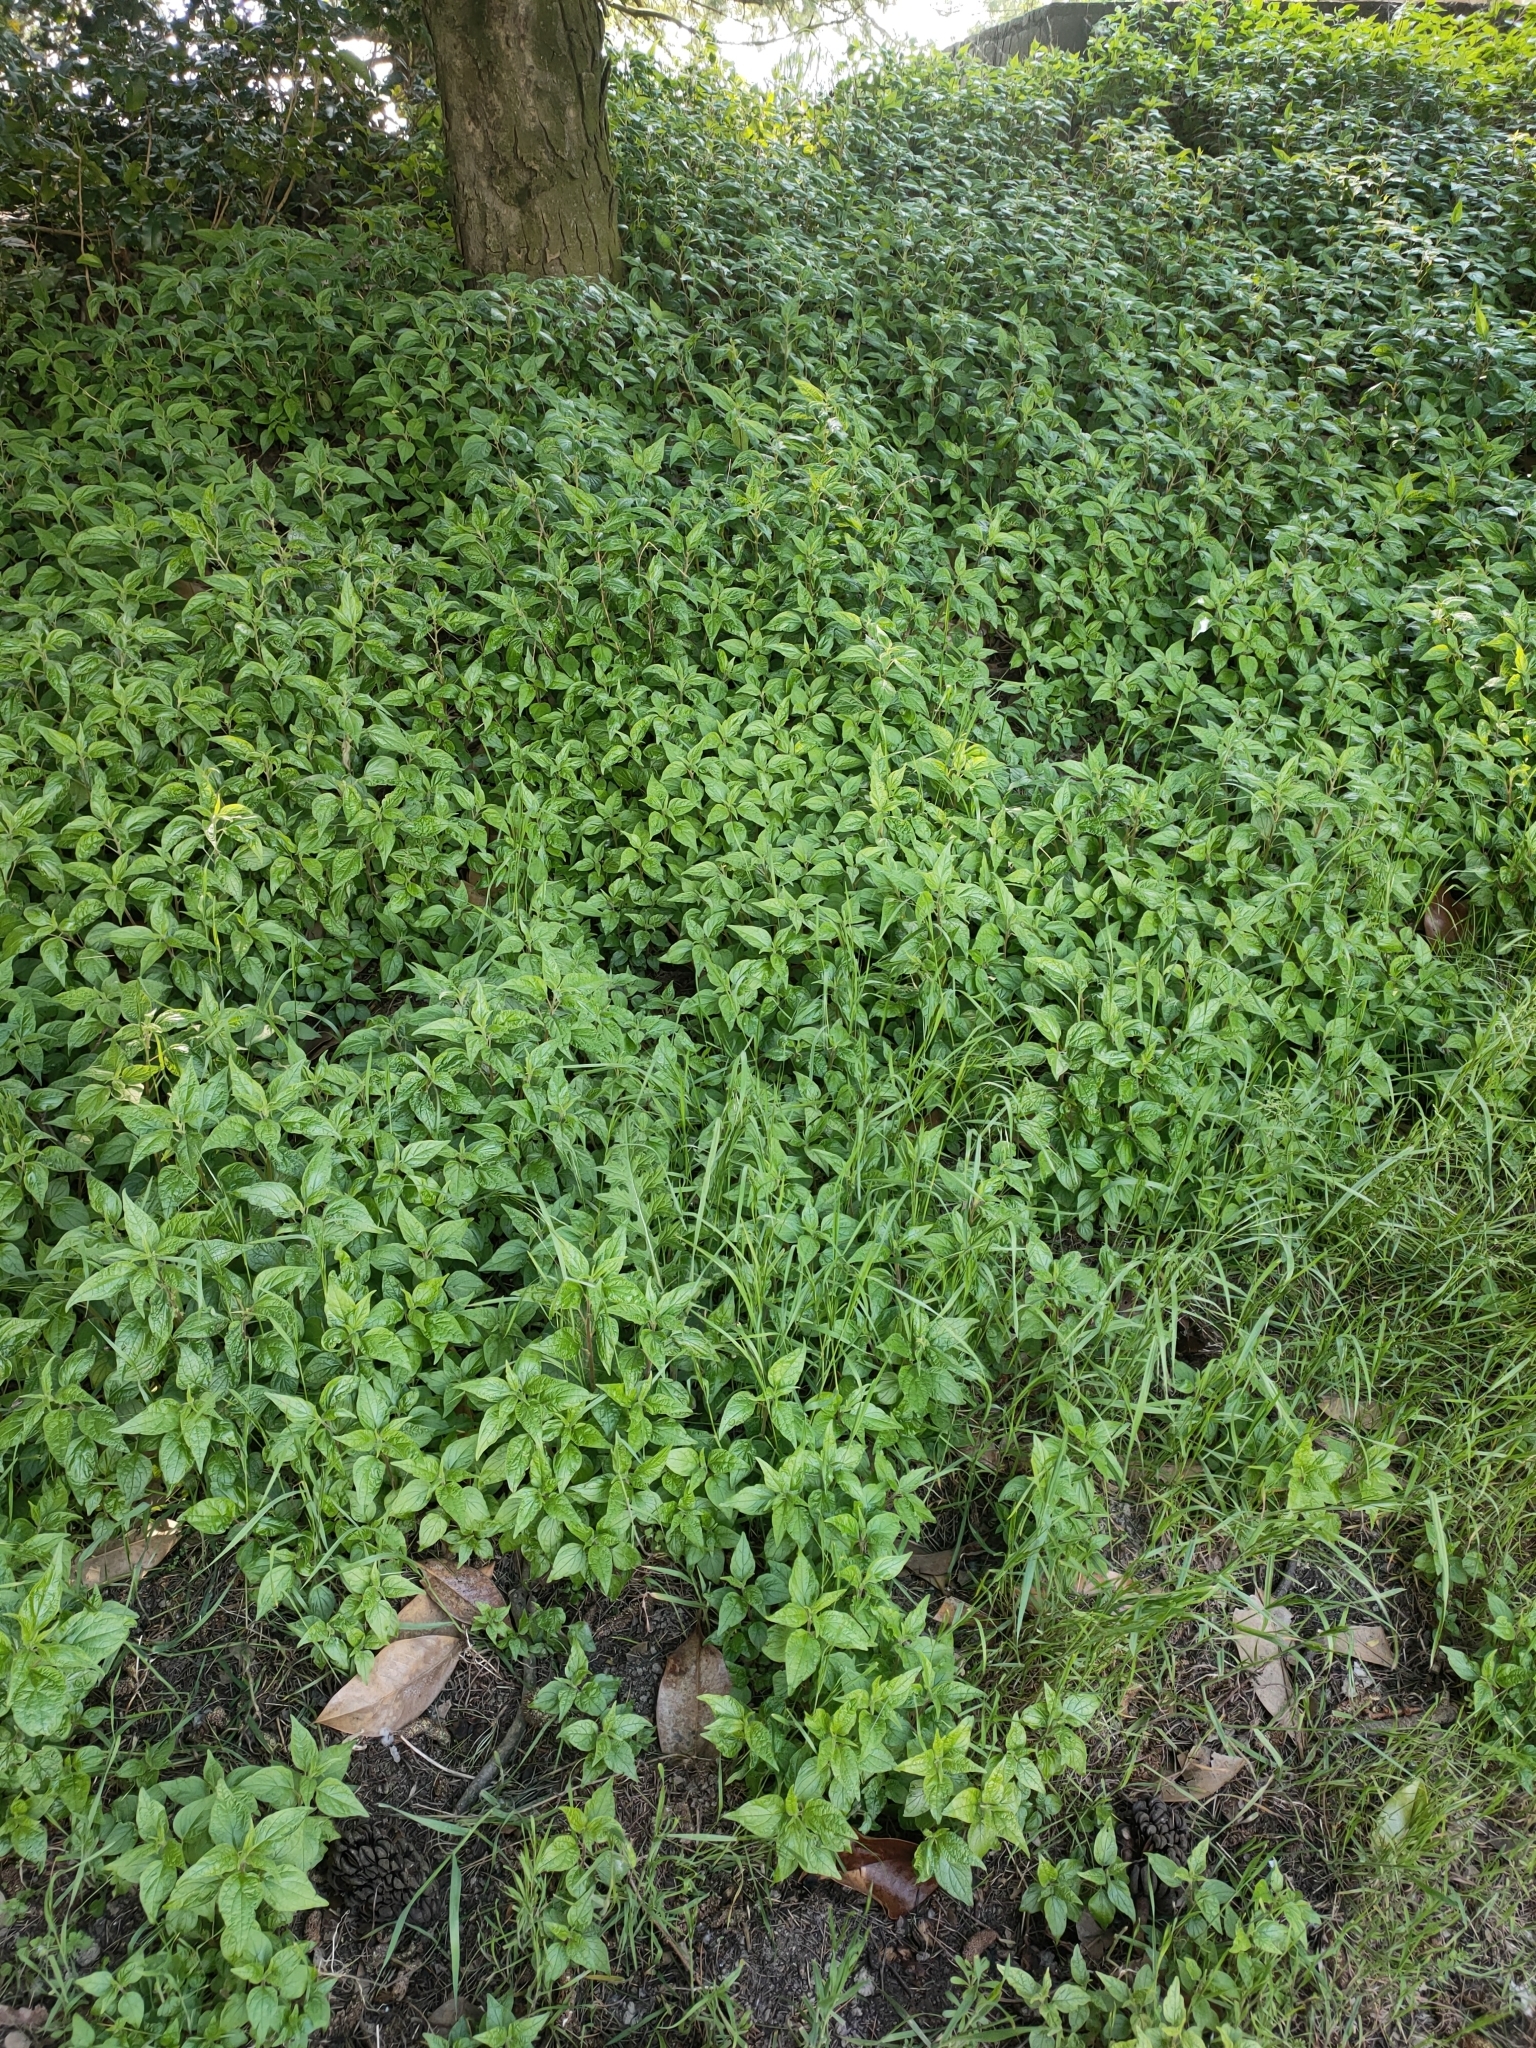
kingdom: Plantae
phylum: Tracheophyta
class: Magnoliopsida
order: Rosales
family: Urticaceae
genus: Parietaria
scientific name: Parietaria judaica
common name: Pellitory-of-the-wall
